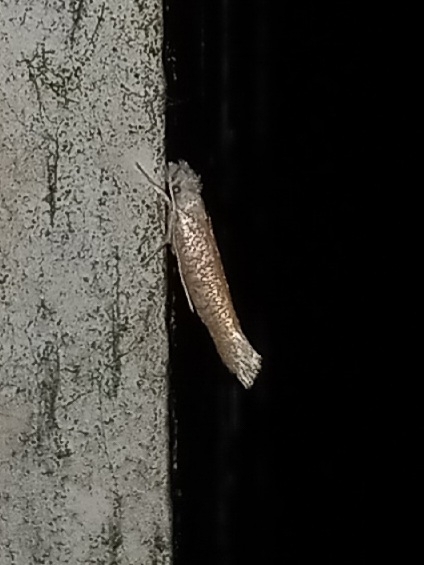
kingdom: Animalia
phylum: Arthropoda
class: Insecta
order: Lepidoptera
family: Yponomeutidae
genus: Zelleria
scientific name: Zelleria retiniella
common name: Brindled zelleria
